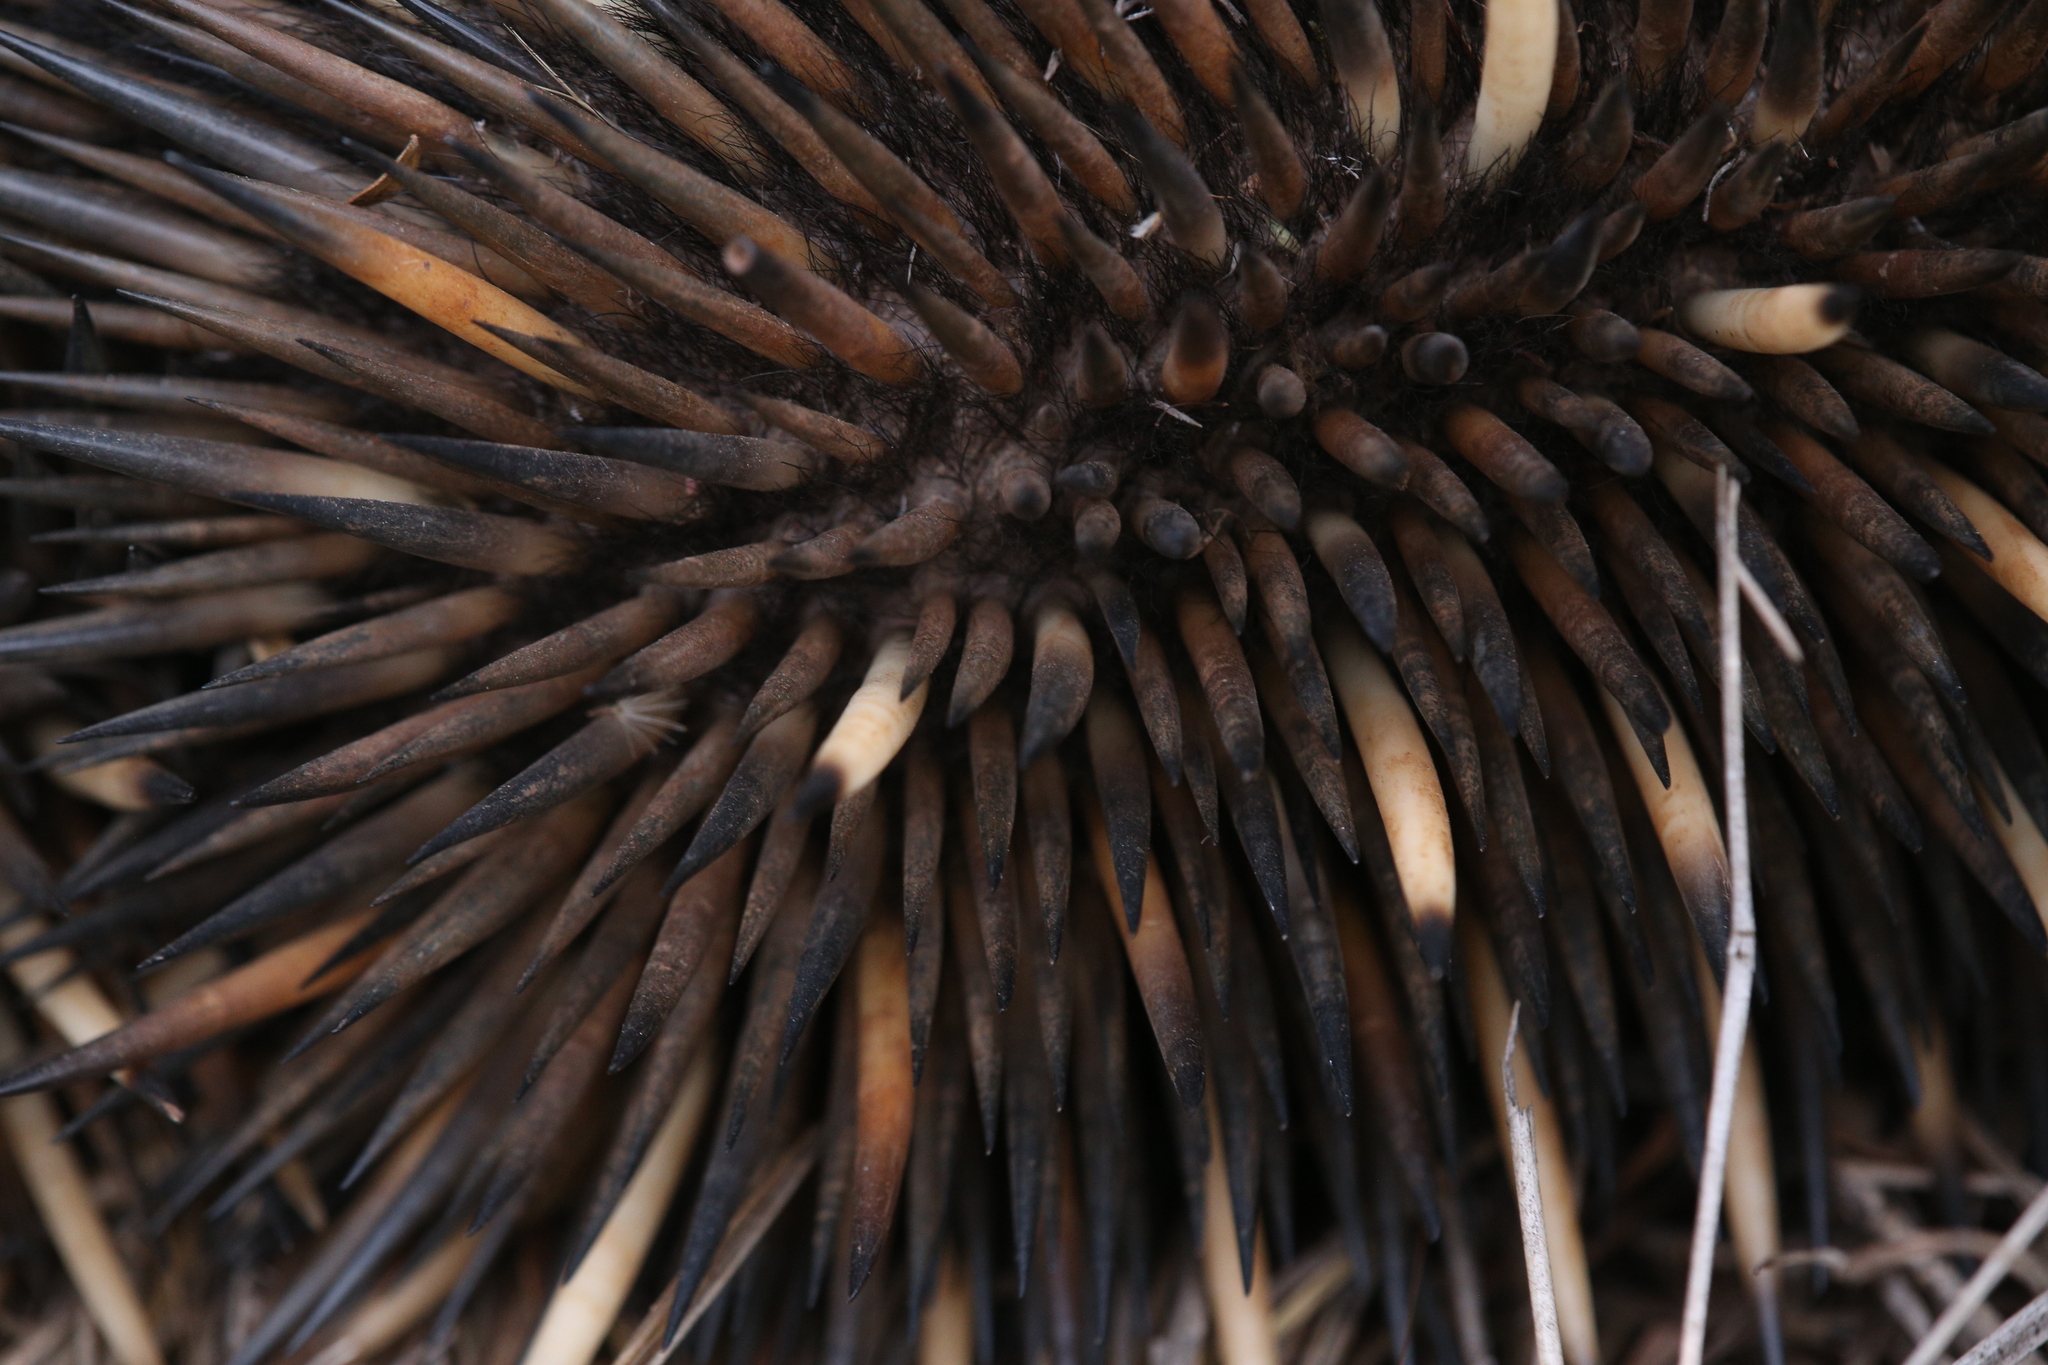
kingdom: Animalia
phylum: Chordata
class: Mammalia
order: Monotremata
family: Tachyglossidae
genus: Tachyglossus
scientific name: Tachyglossus aculeatus
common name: Short-beaked echidna
